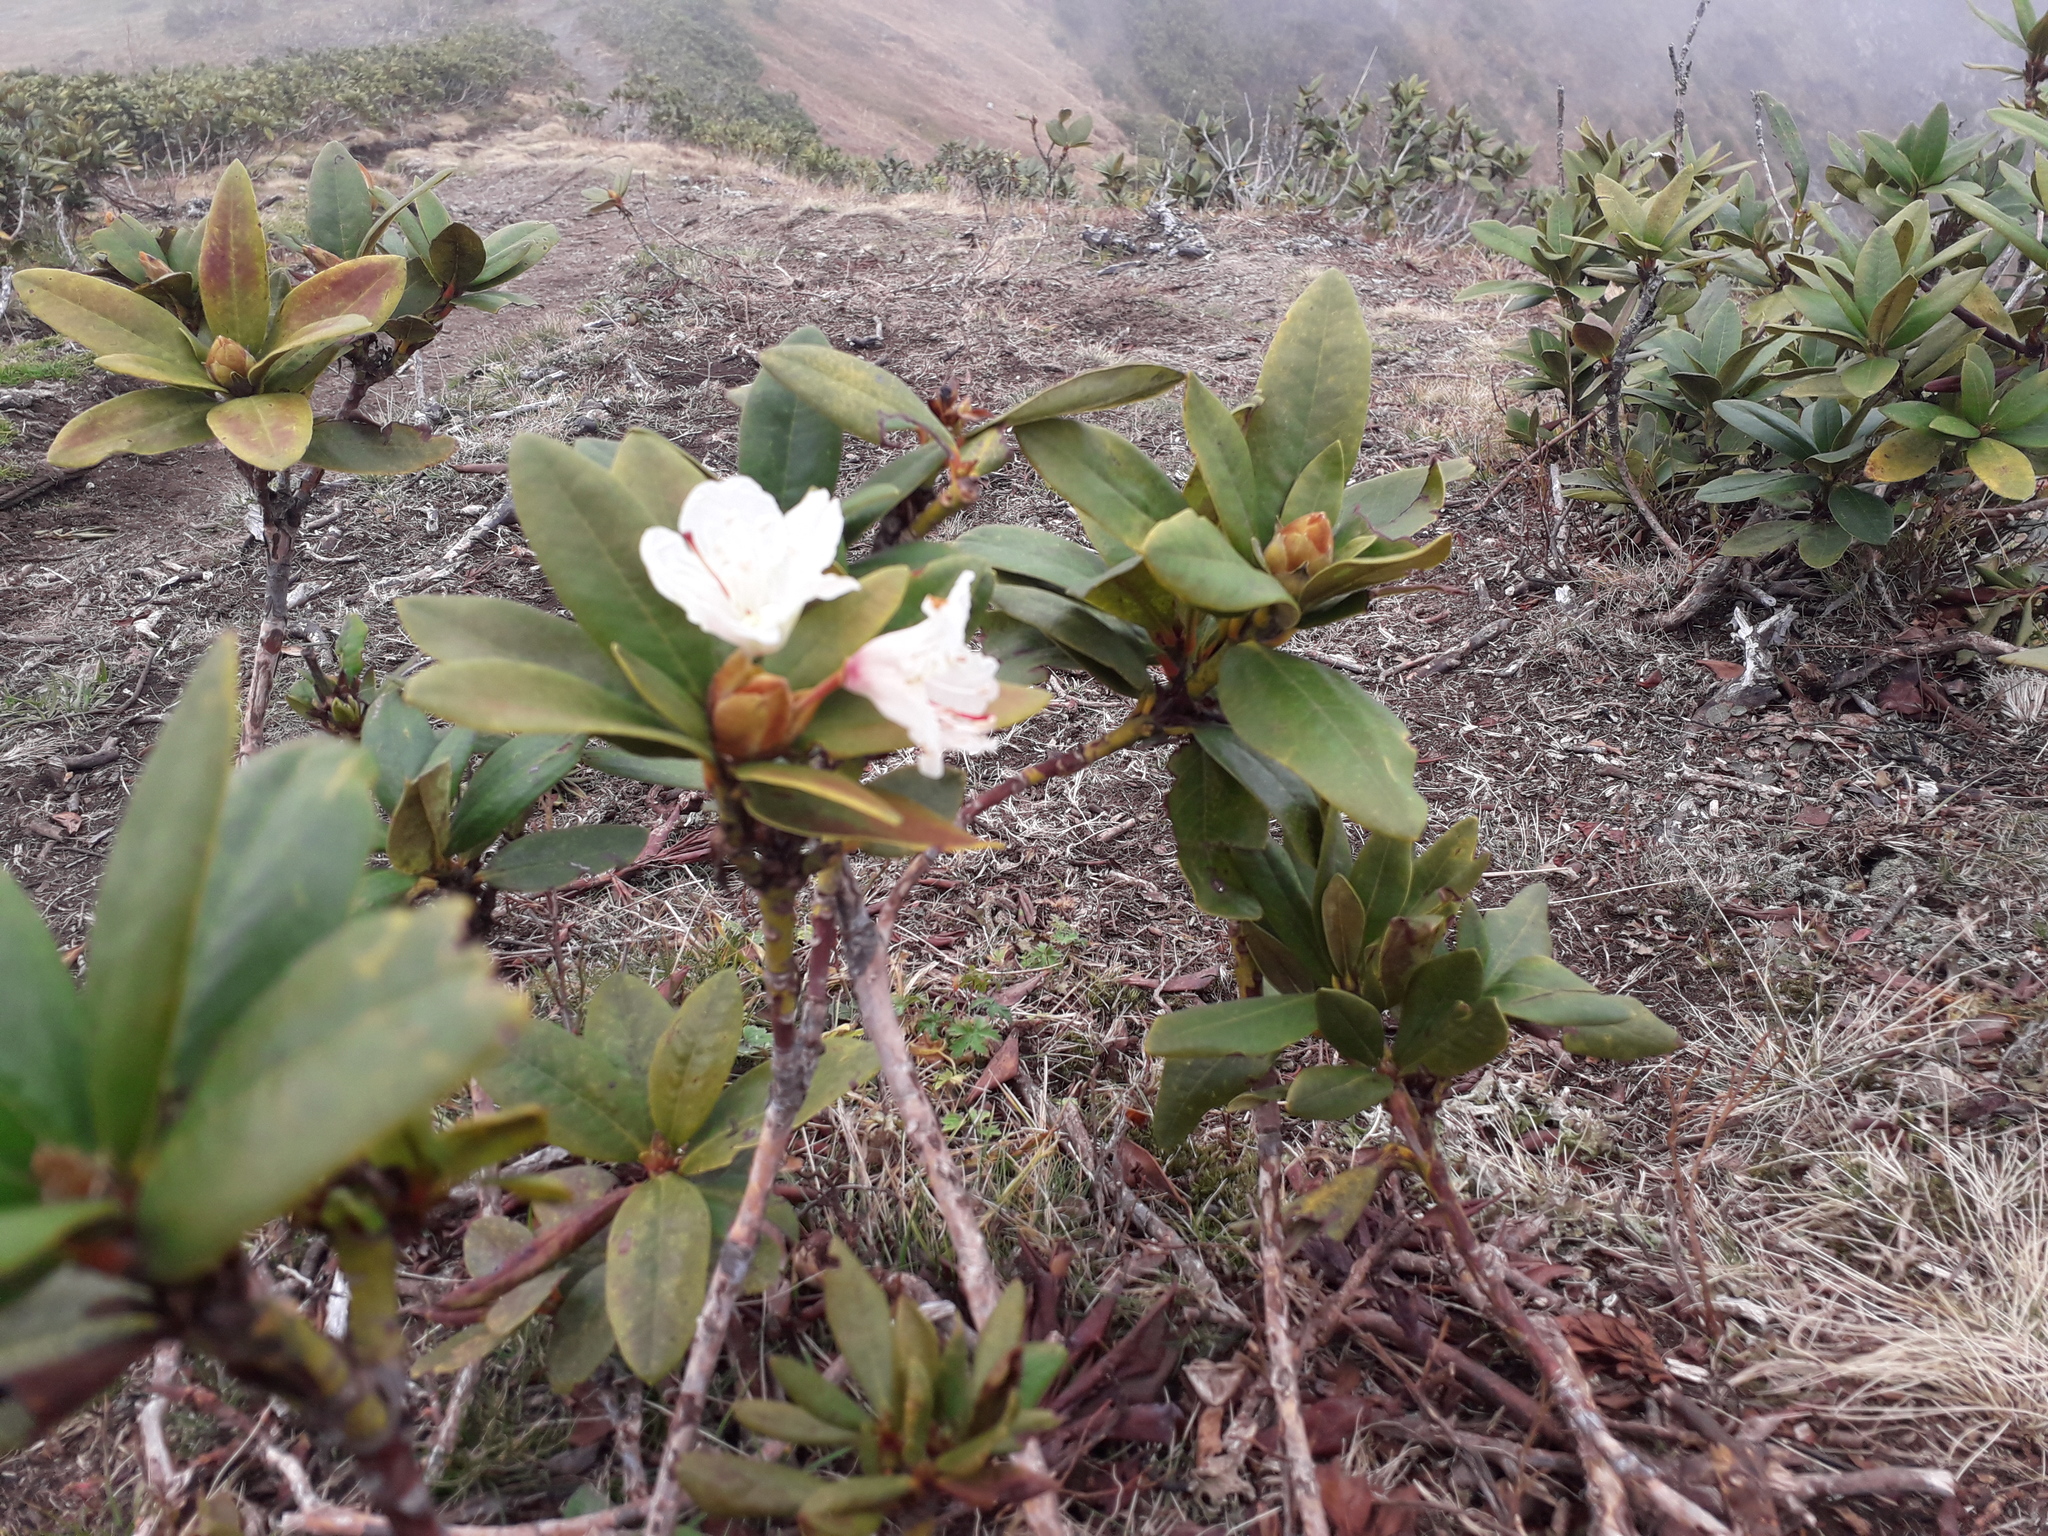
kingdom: Plantae
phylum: Tracheophyta
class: Magnoliopsida
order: Ericales
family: Ericaceae
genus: Rhododendron
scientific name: Rhododendron caucasicum
